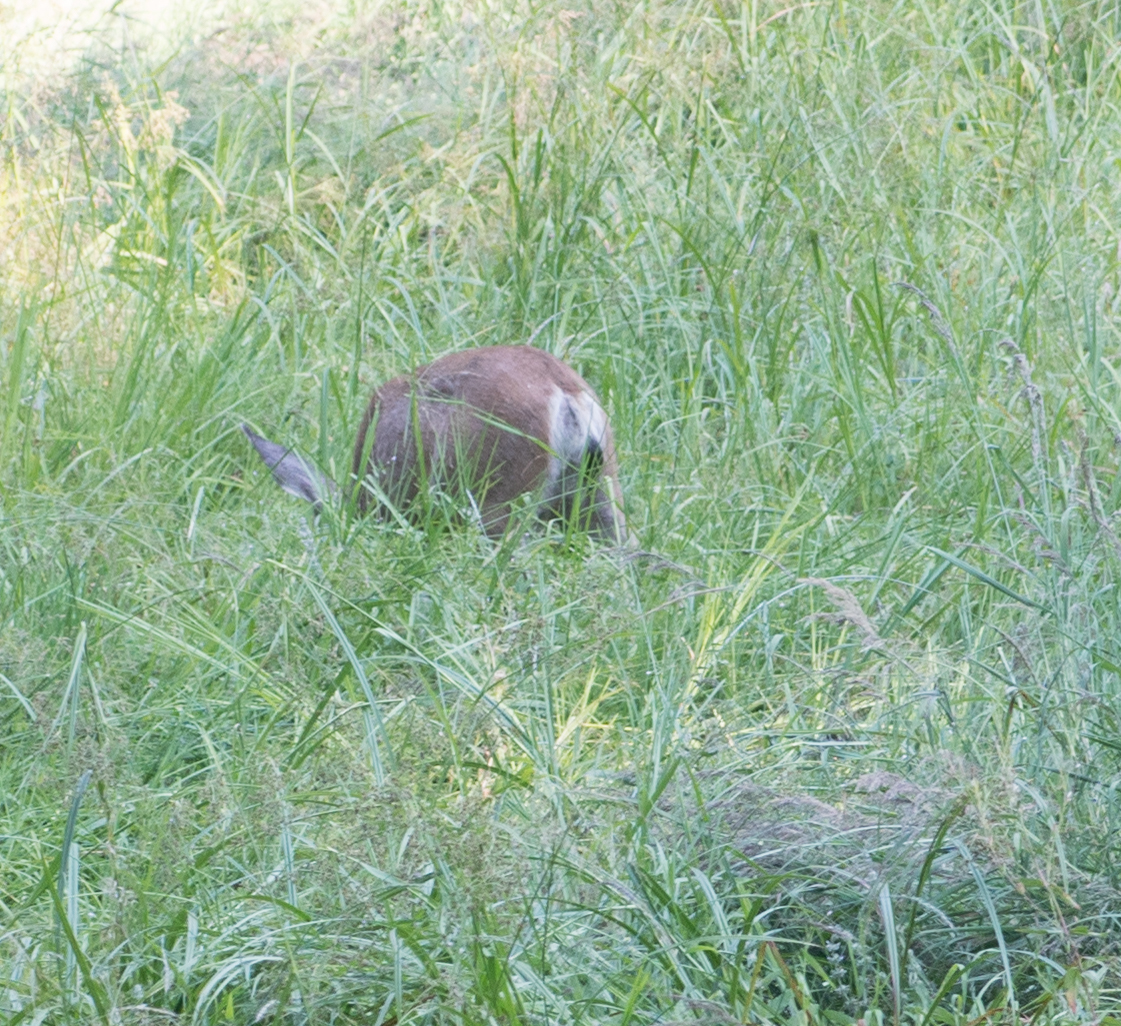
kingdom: Animalia
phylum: Chordata
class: Mammalia
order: Artiodactyla
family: Cervidae
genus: Odocoileus
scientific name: Odocoileus hemionus
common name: Mule deer
